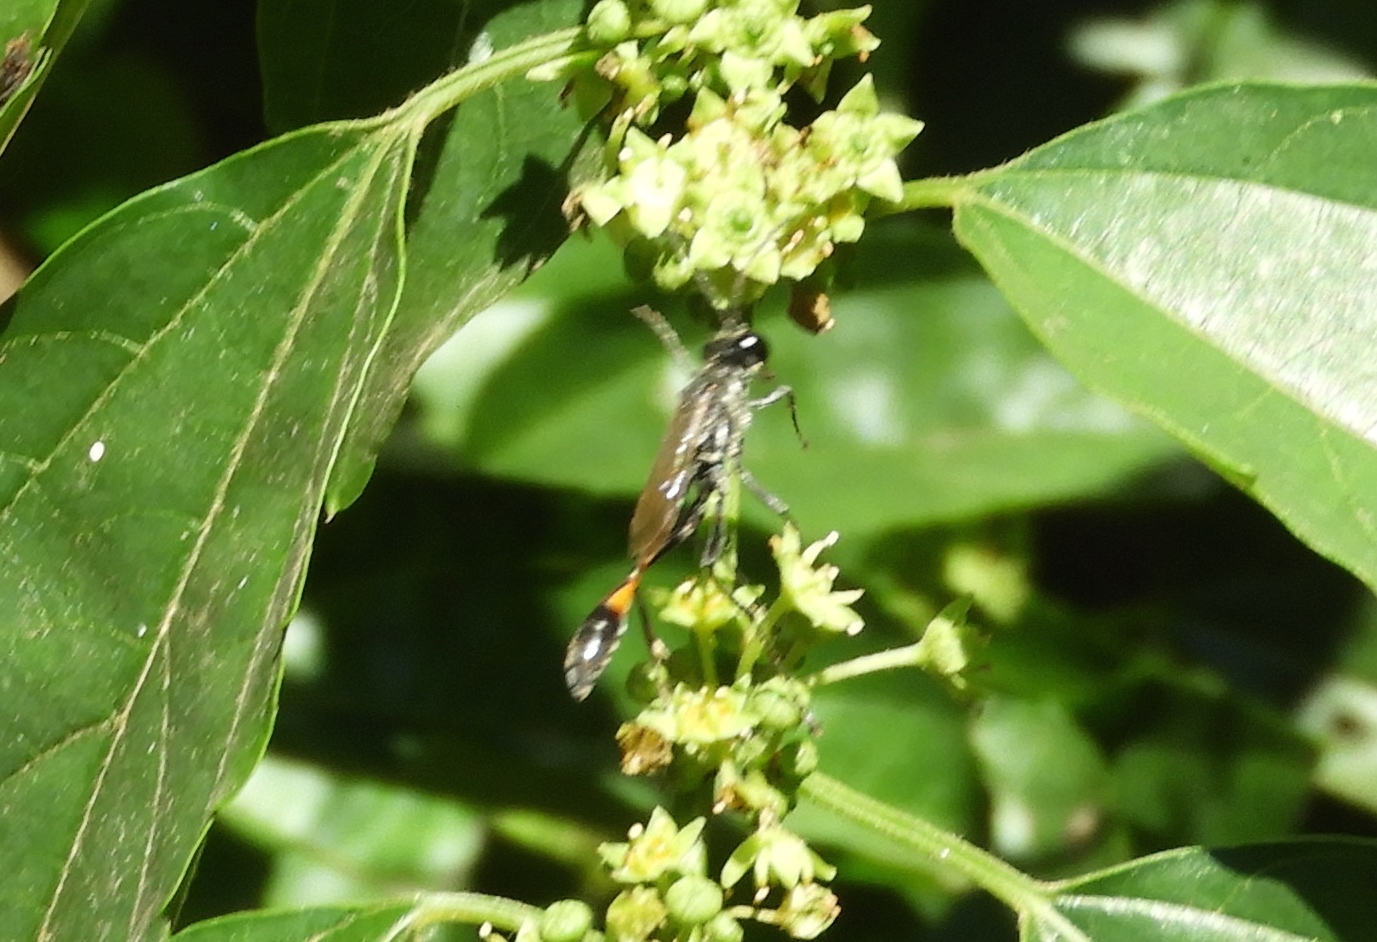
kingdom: Animalia
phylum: Arthropoda
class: Insecta
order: Hymenoptera
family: Sphecidae
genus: Ammophila
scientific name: Ammophila
